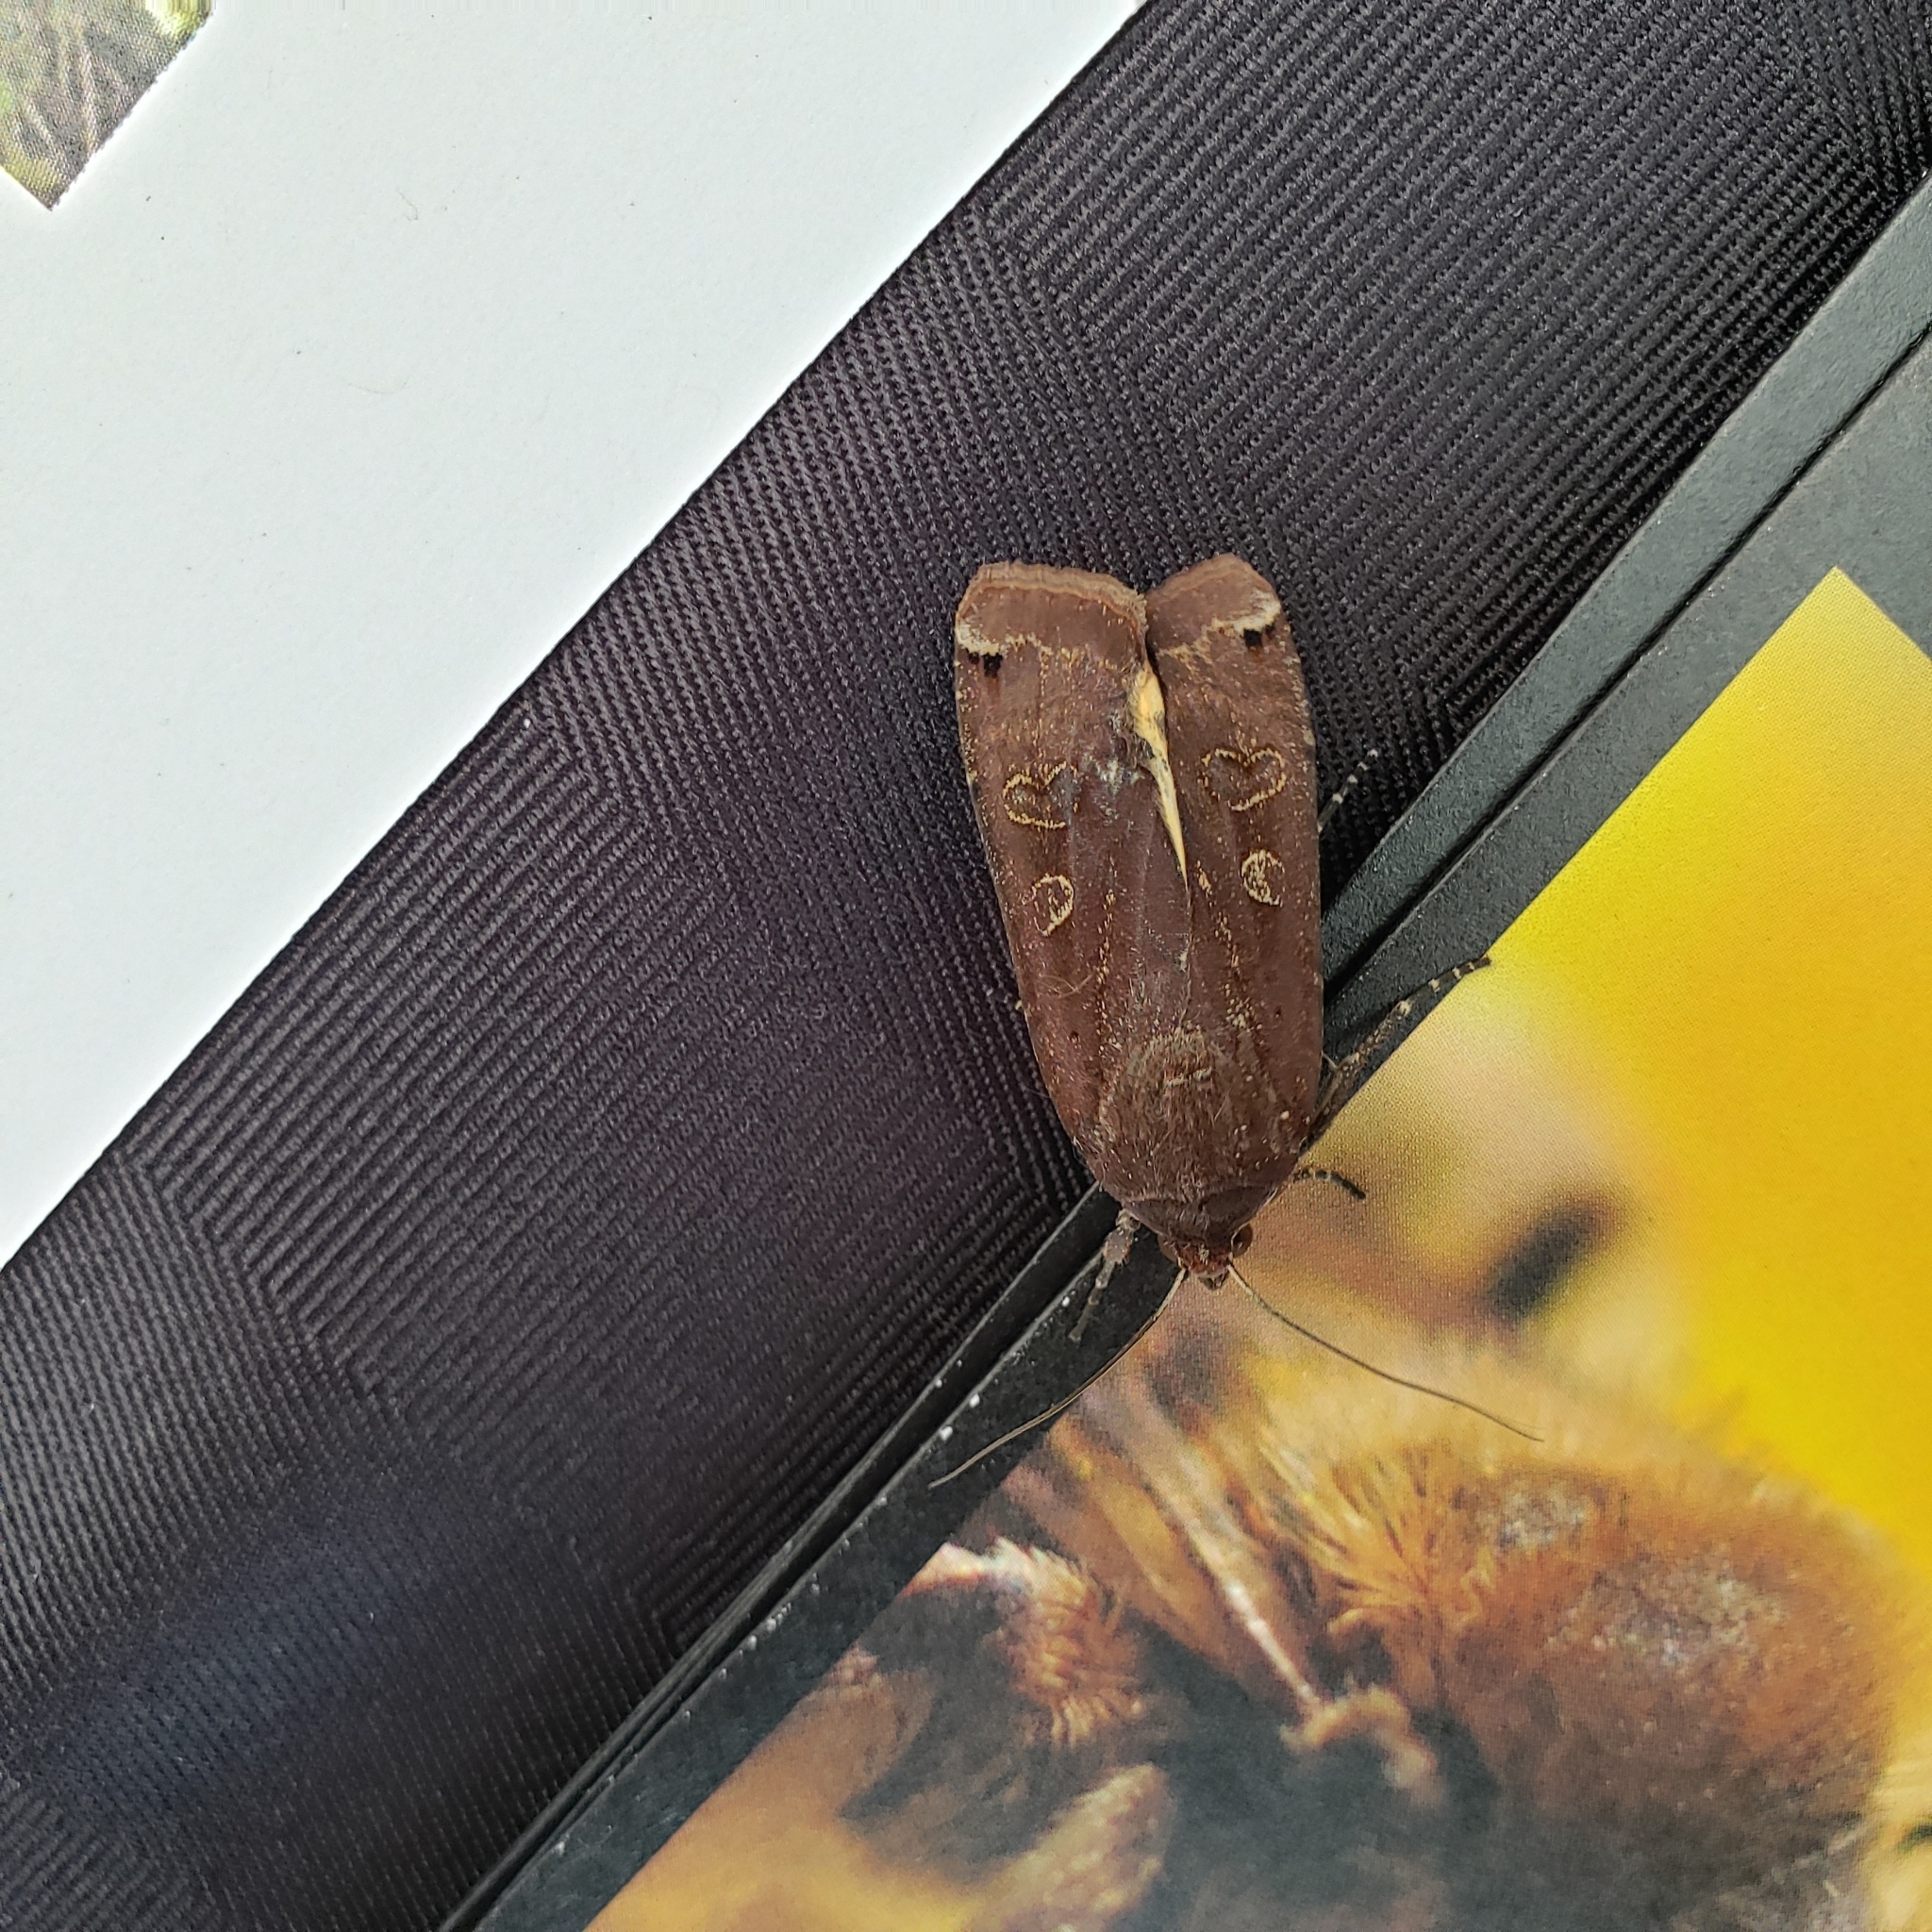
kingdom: Animalia
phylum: Arthropoda
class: Insecta
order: Lepidoptera
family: Noctuidae
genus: Noctua
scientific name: Noctua pronuba
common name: Large yellow underwing
